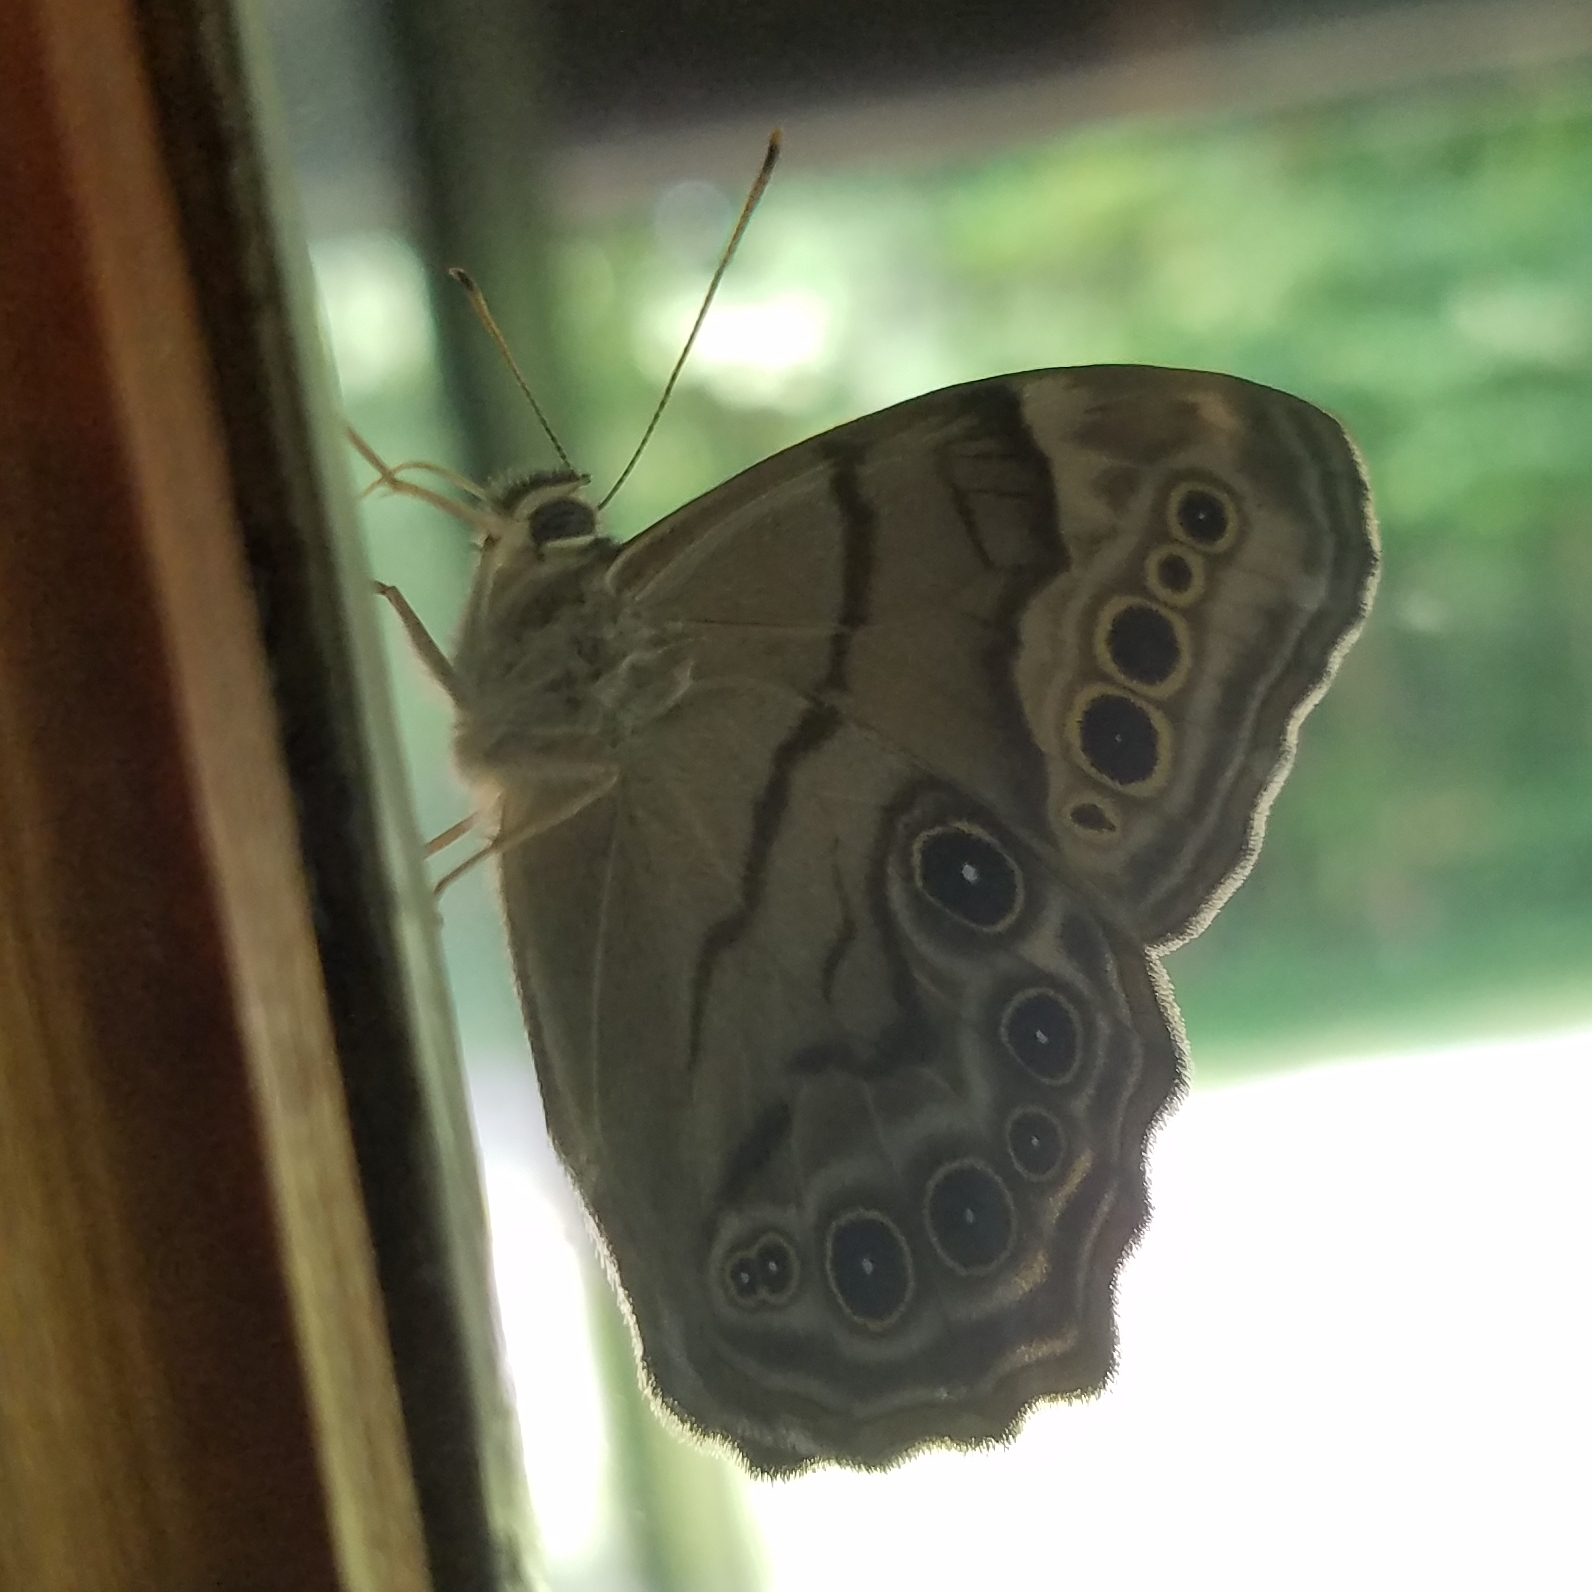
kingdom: Animalia
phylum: Arthropoda
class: Insecta
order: Lepidoptera
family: Nymphalidae
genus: Lethe
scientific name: Lethe anthedon
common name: Northern pearly-eye
